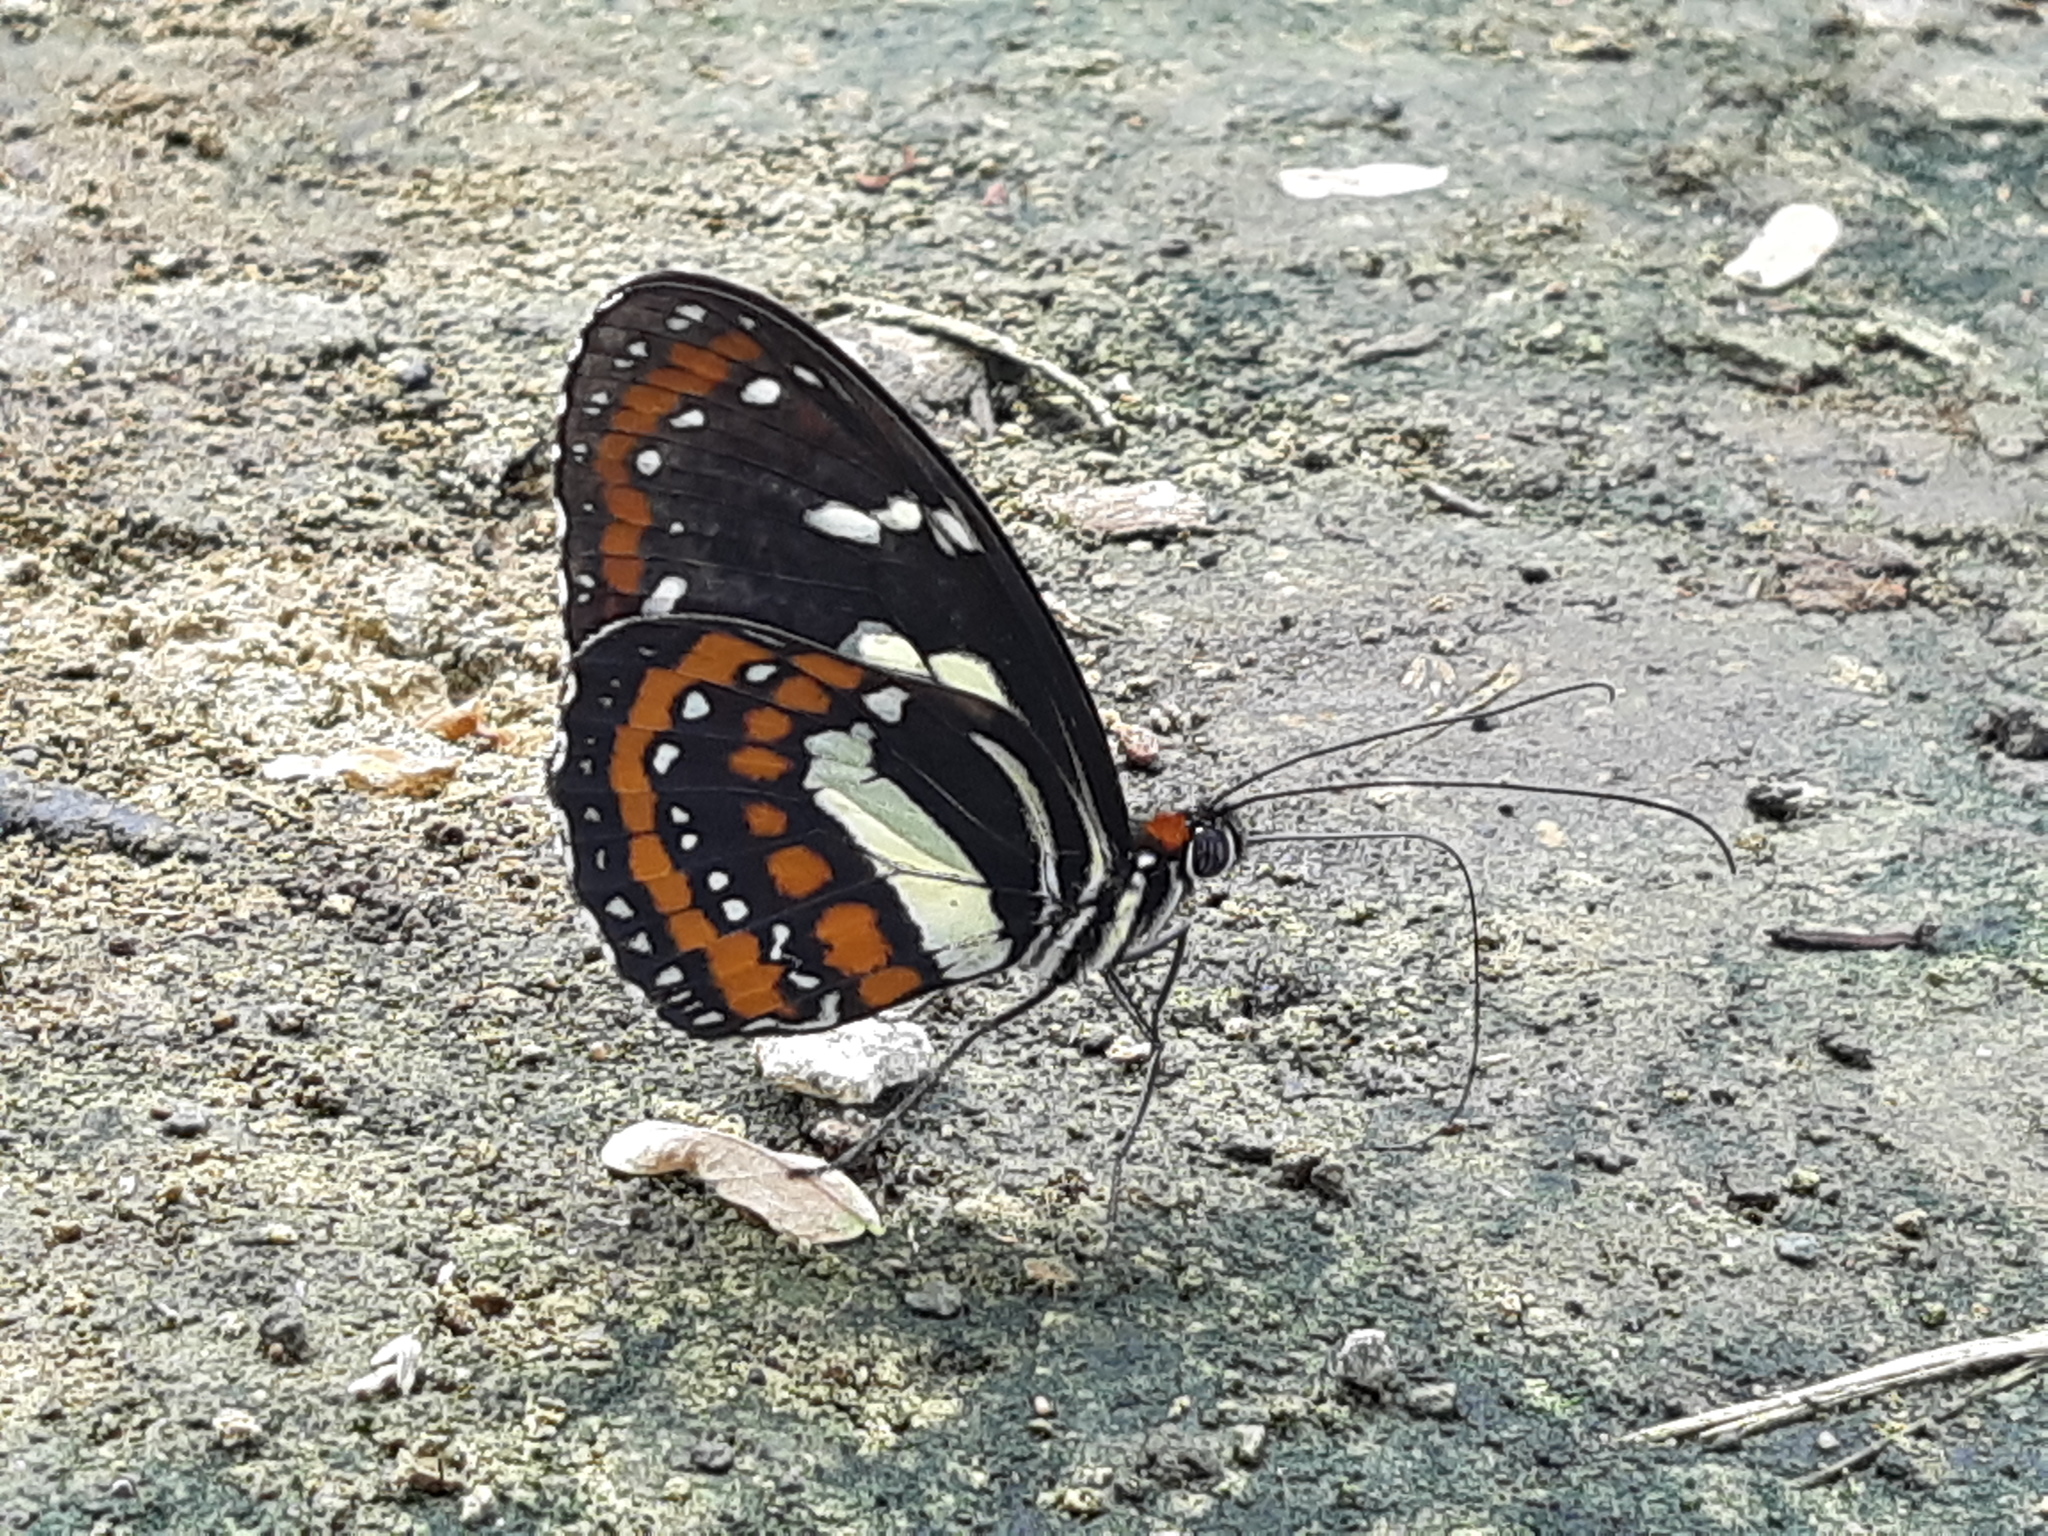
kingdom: Animalia
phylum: Arthropoda
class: Insecta
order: Lepidoptera
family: Nymphalidae
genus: Elzunia
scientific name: Elzunia pavonii
